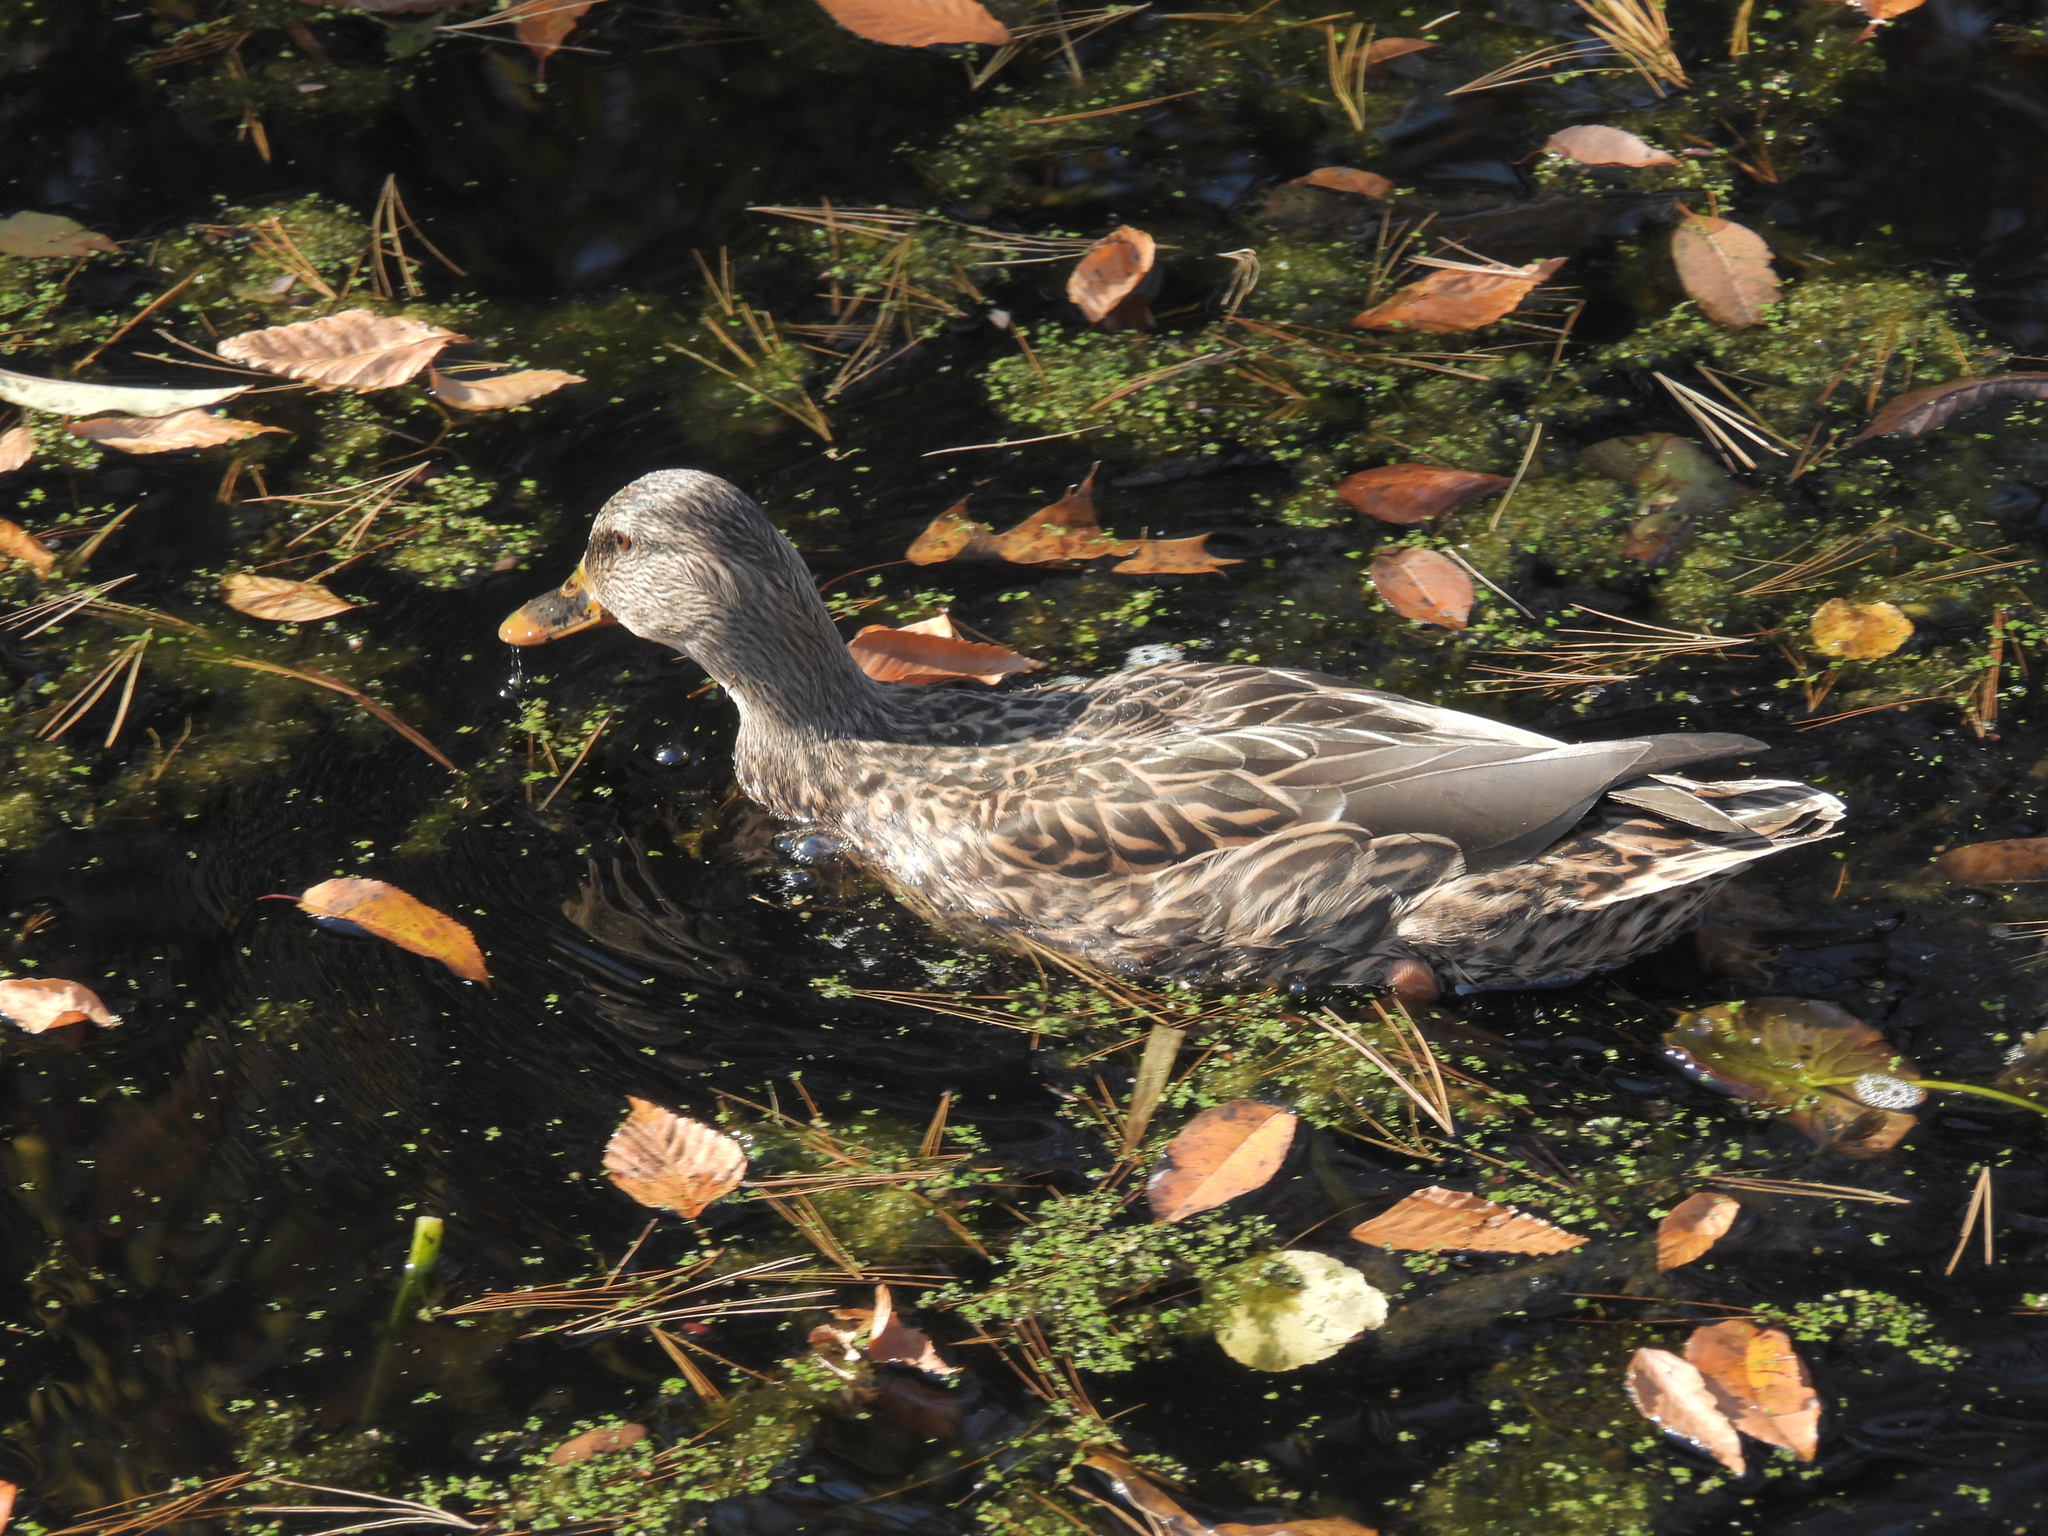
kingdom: Animalia
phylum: Chordata
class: Aves
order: Anseriformes
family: Anatidae
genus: Anas
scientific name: Anas platyrhynchos
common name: Mallard
